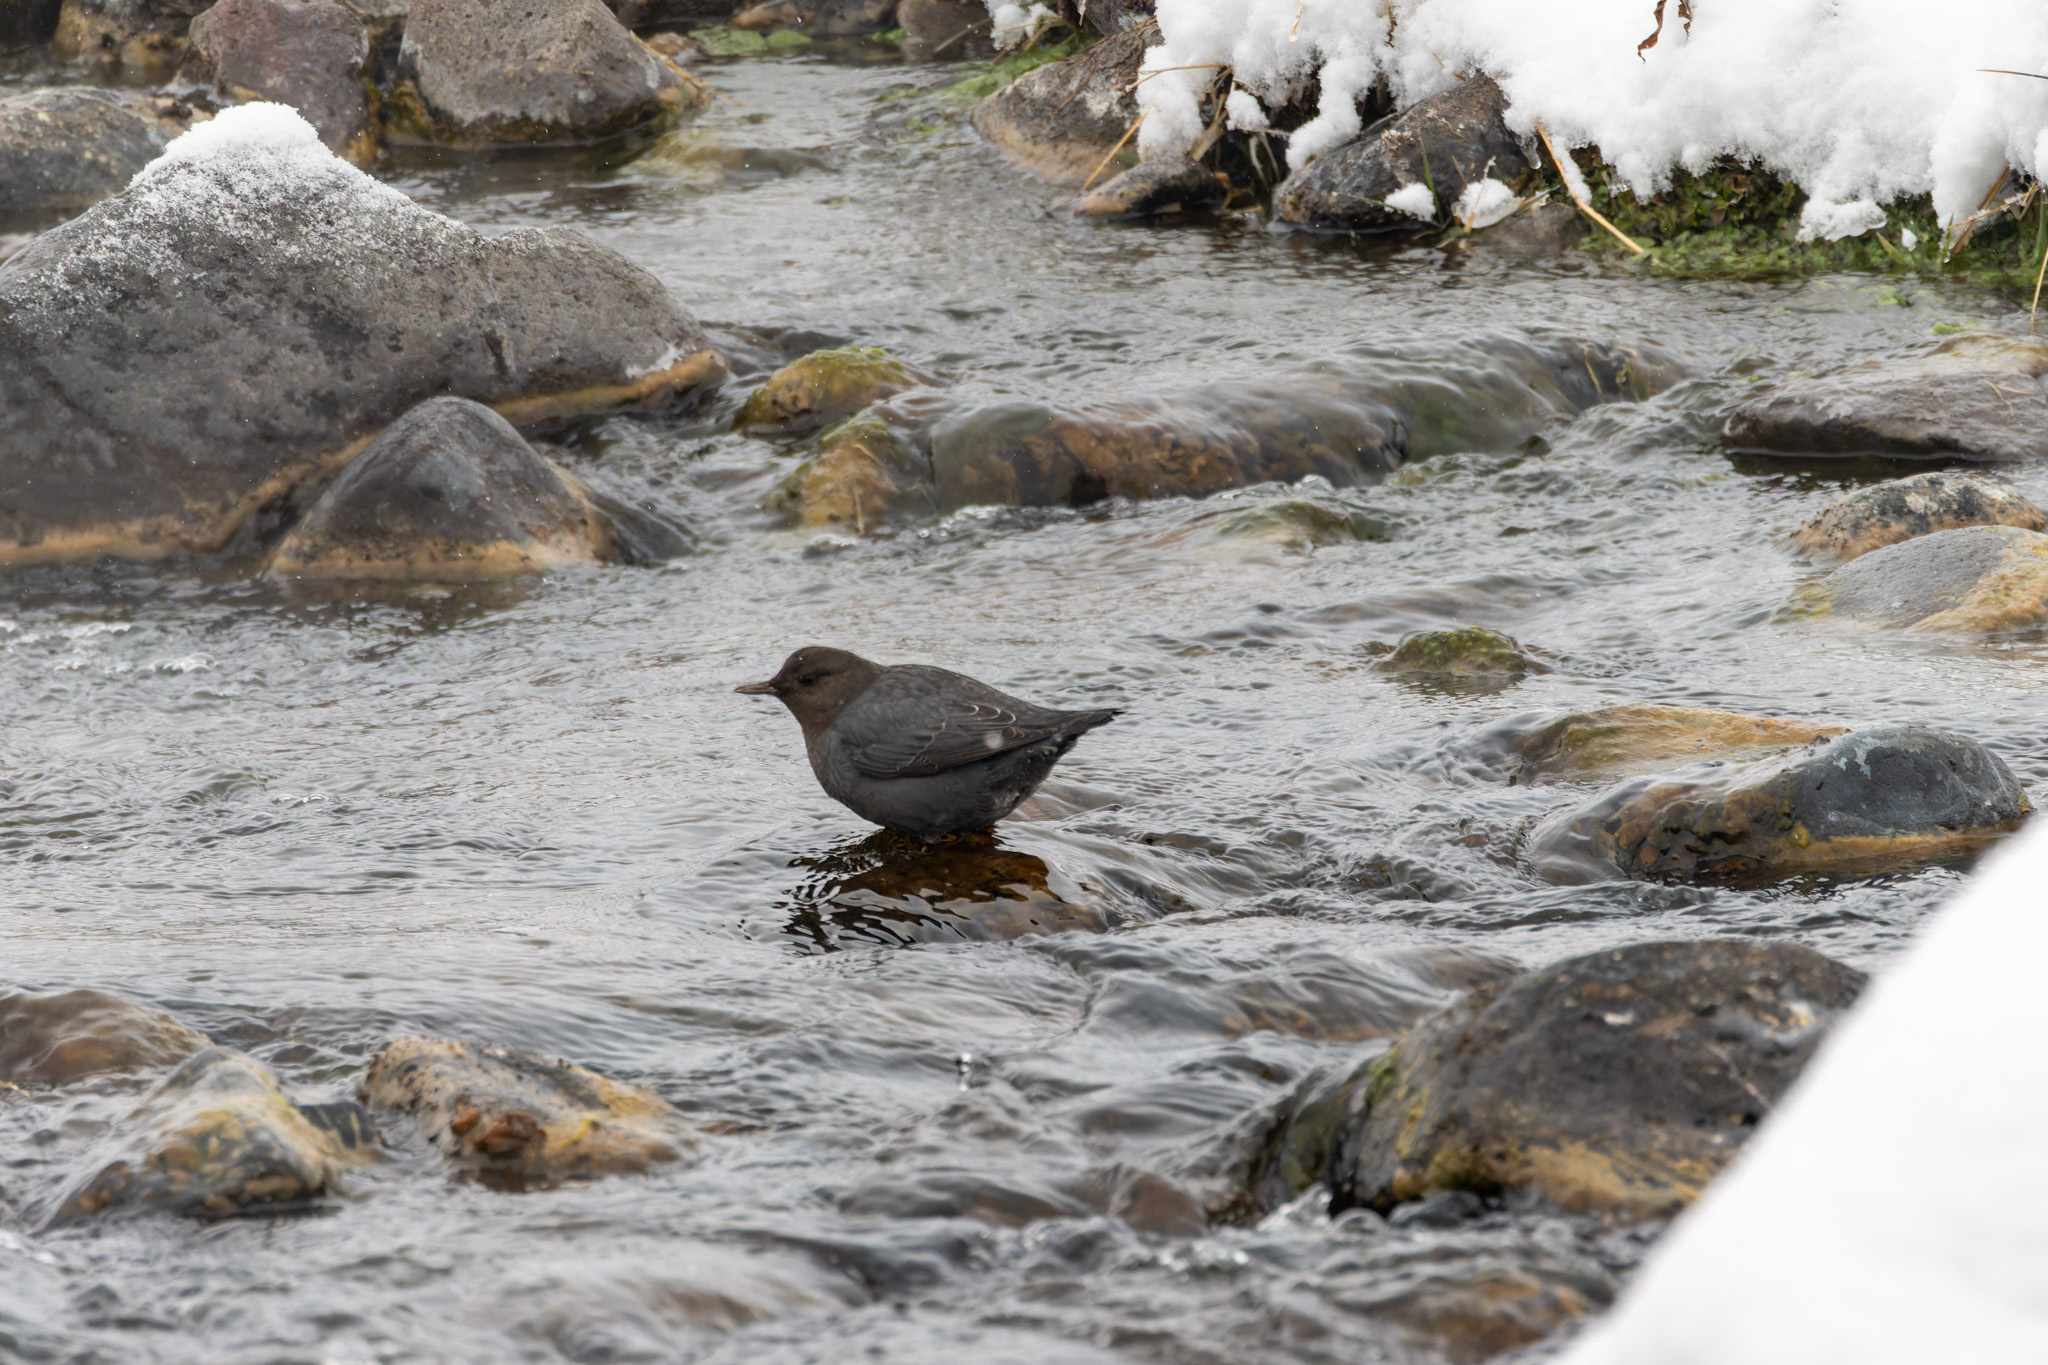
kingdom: Animalia
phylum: Chordata
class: Aves
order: Passeriformes
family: Cinclidae
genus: Cinclus
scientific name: Cinclus mexicanus
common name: American dipper
